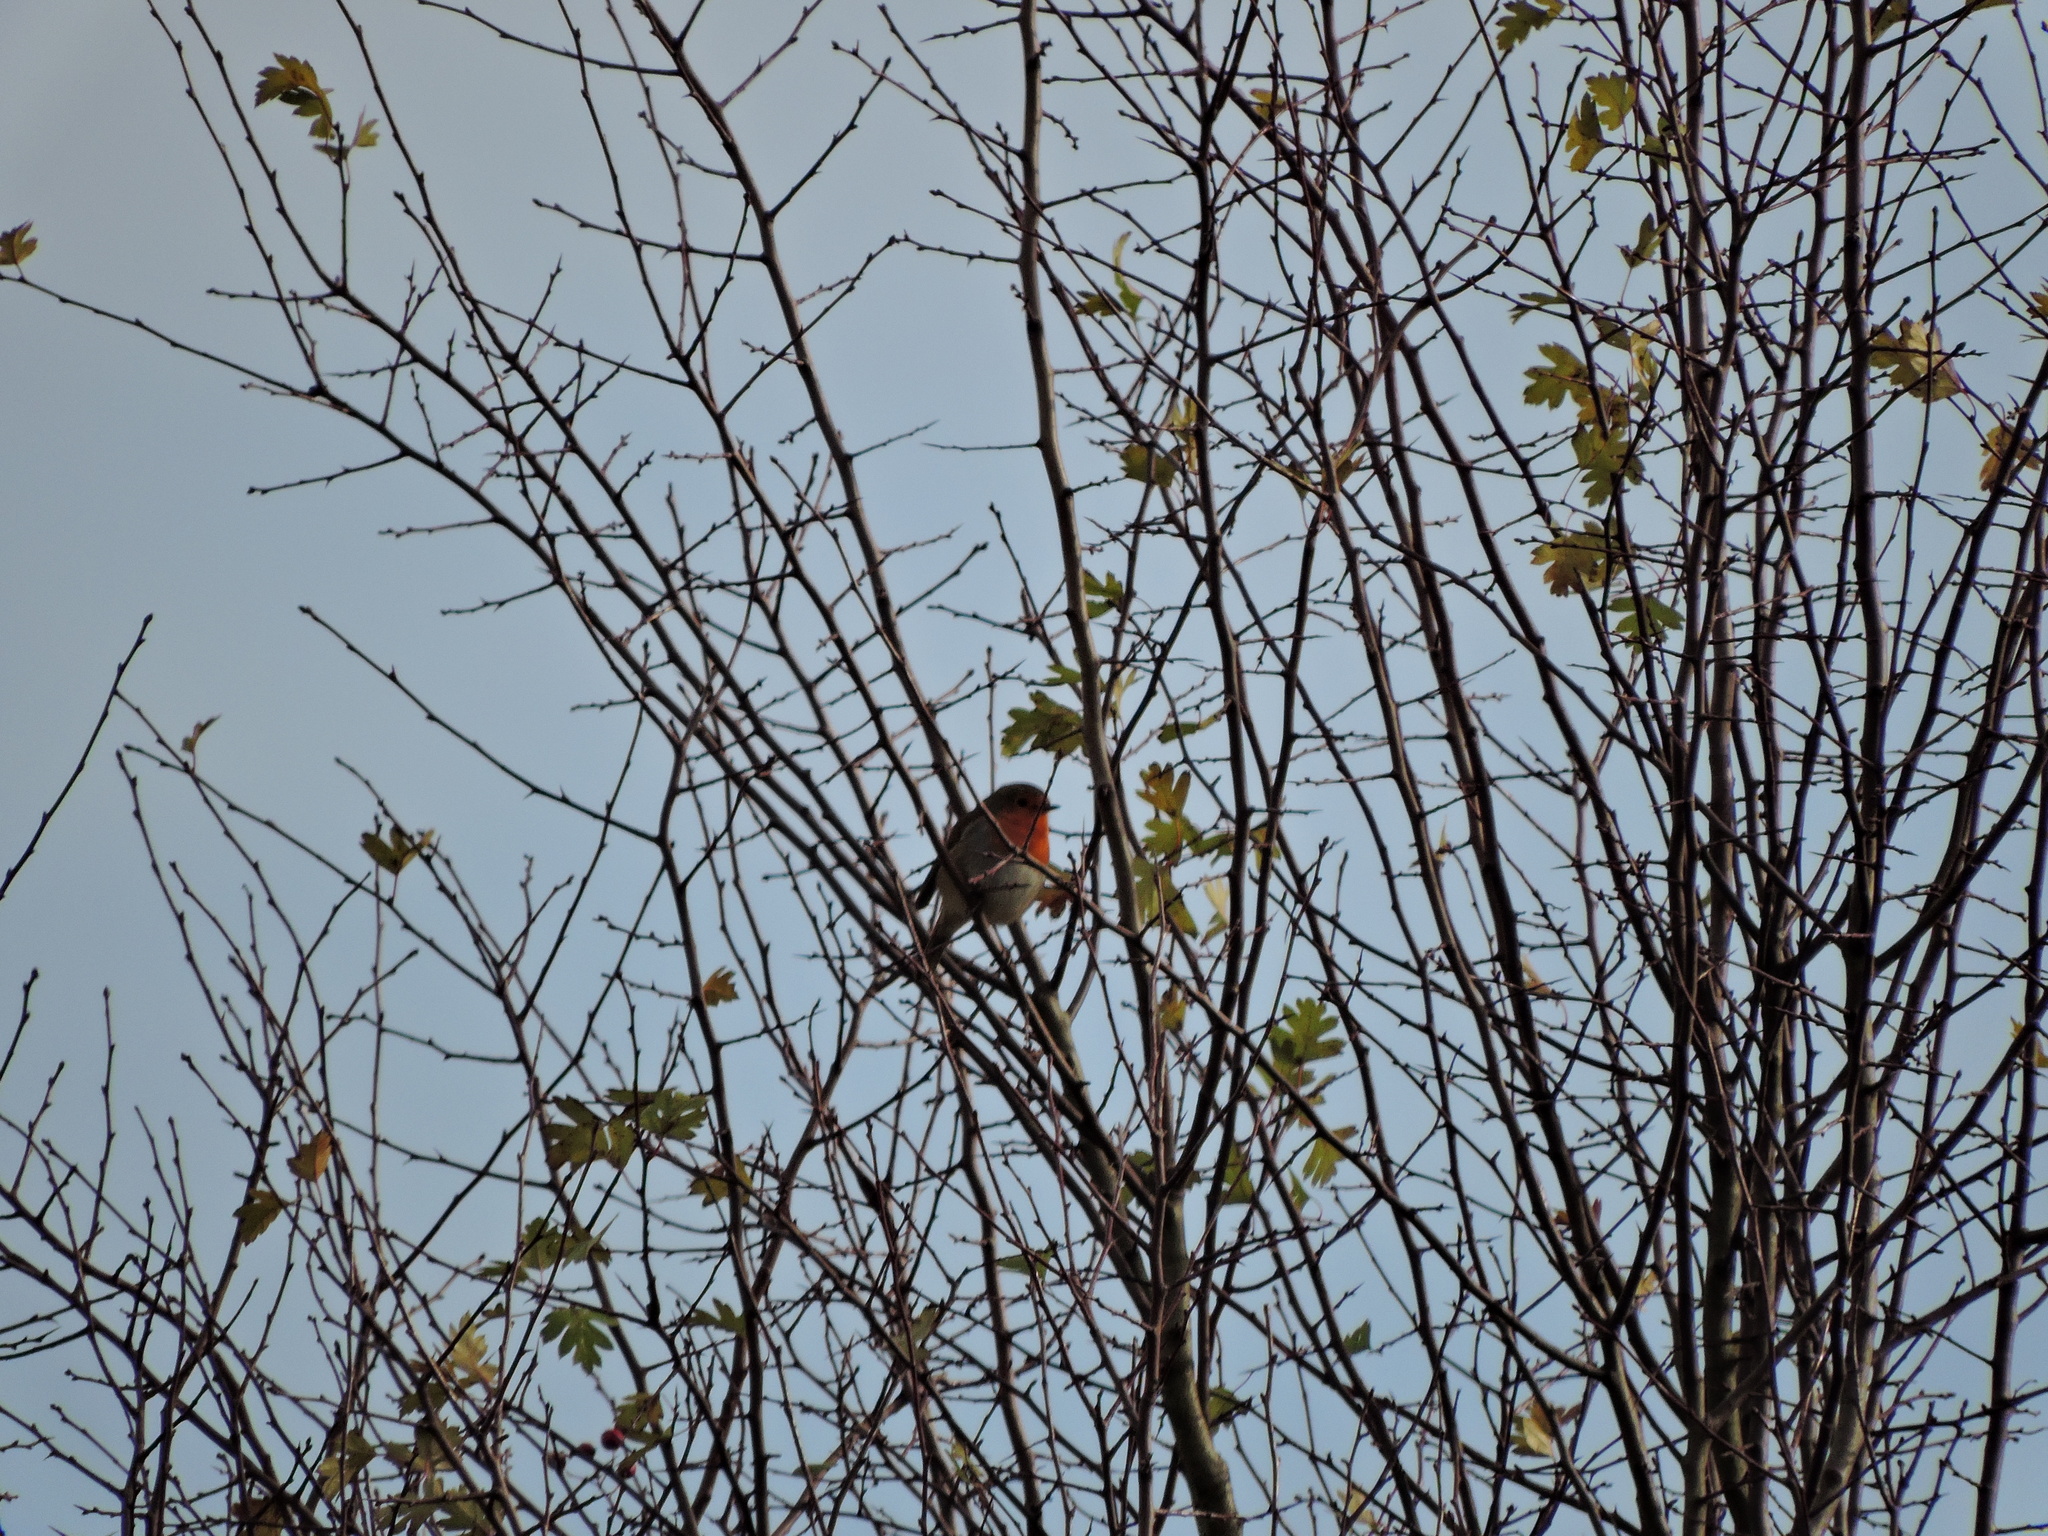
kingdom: Animalia
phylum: Chordata
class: Aves
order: Passeriformes
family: Muscicapidae
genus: Erithacus
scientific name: Erithacus rubecula
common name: European robin
